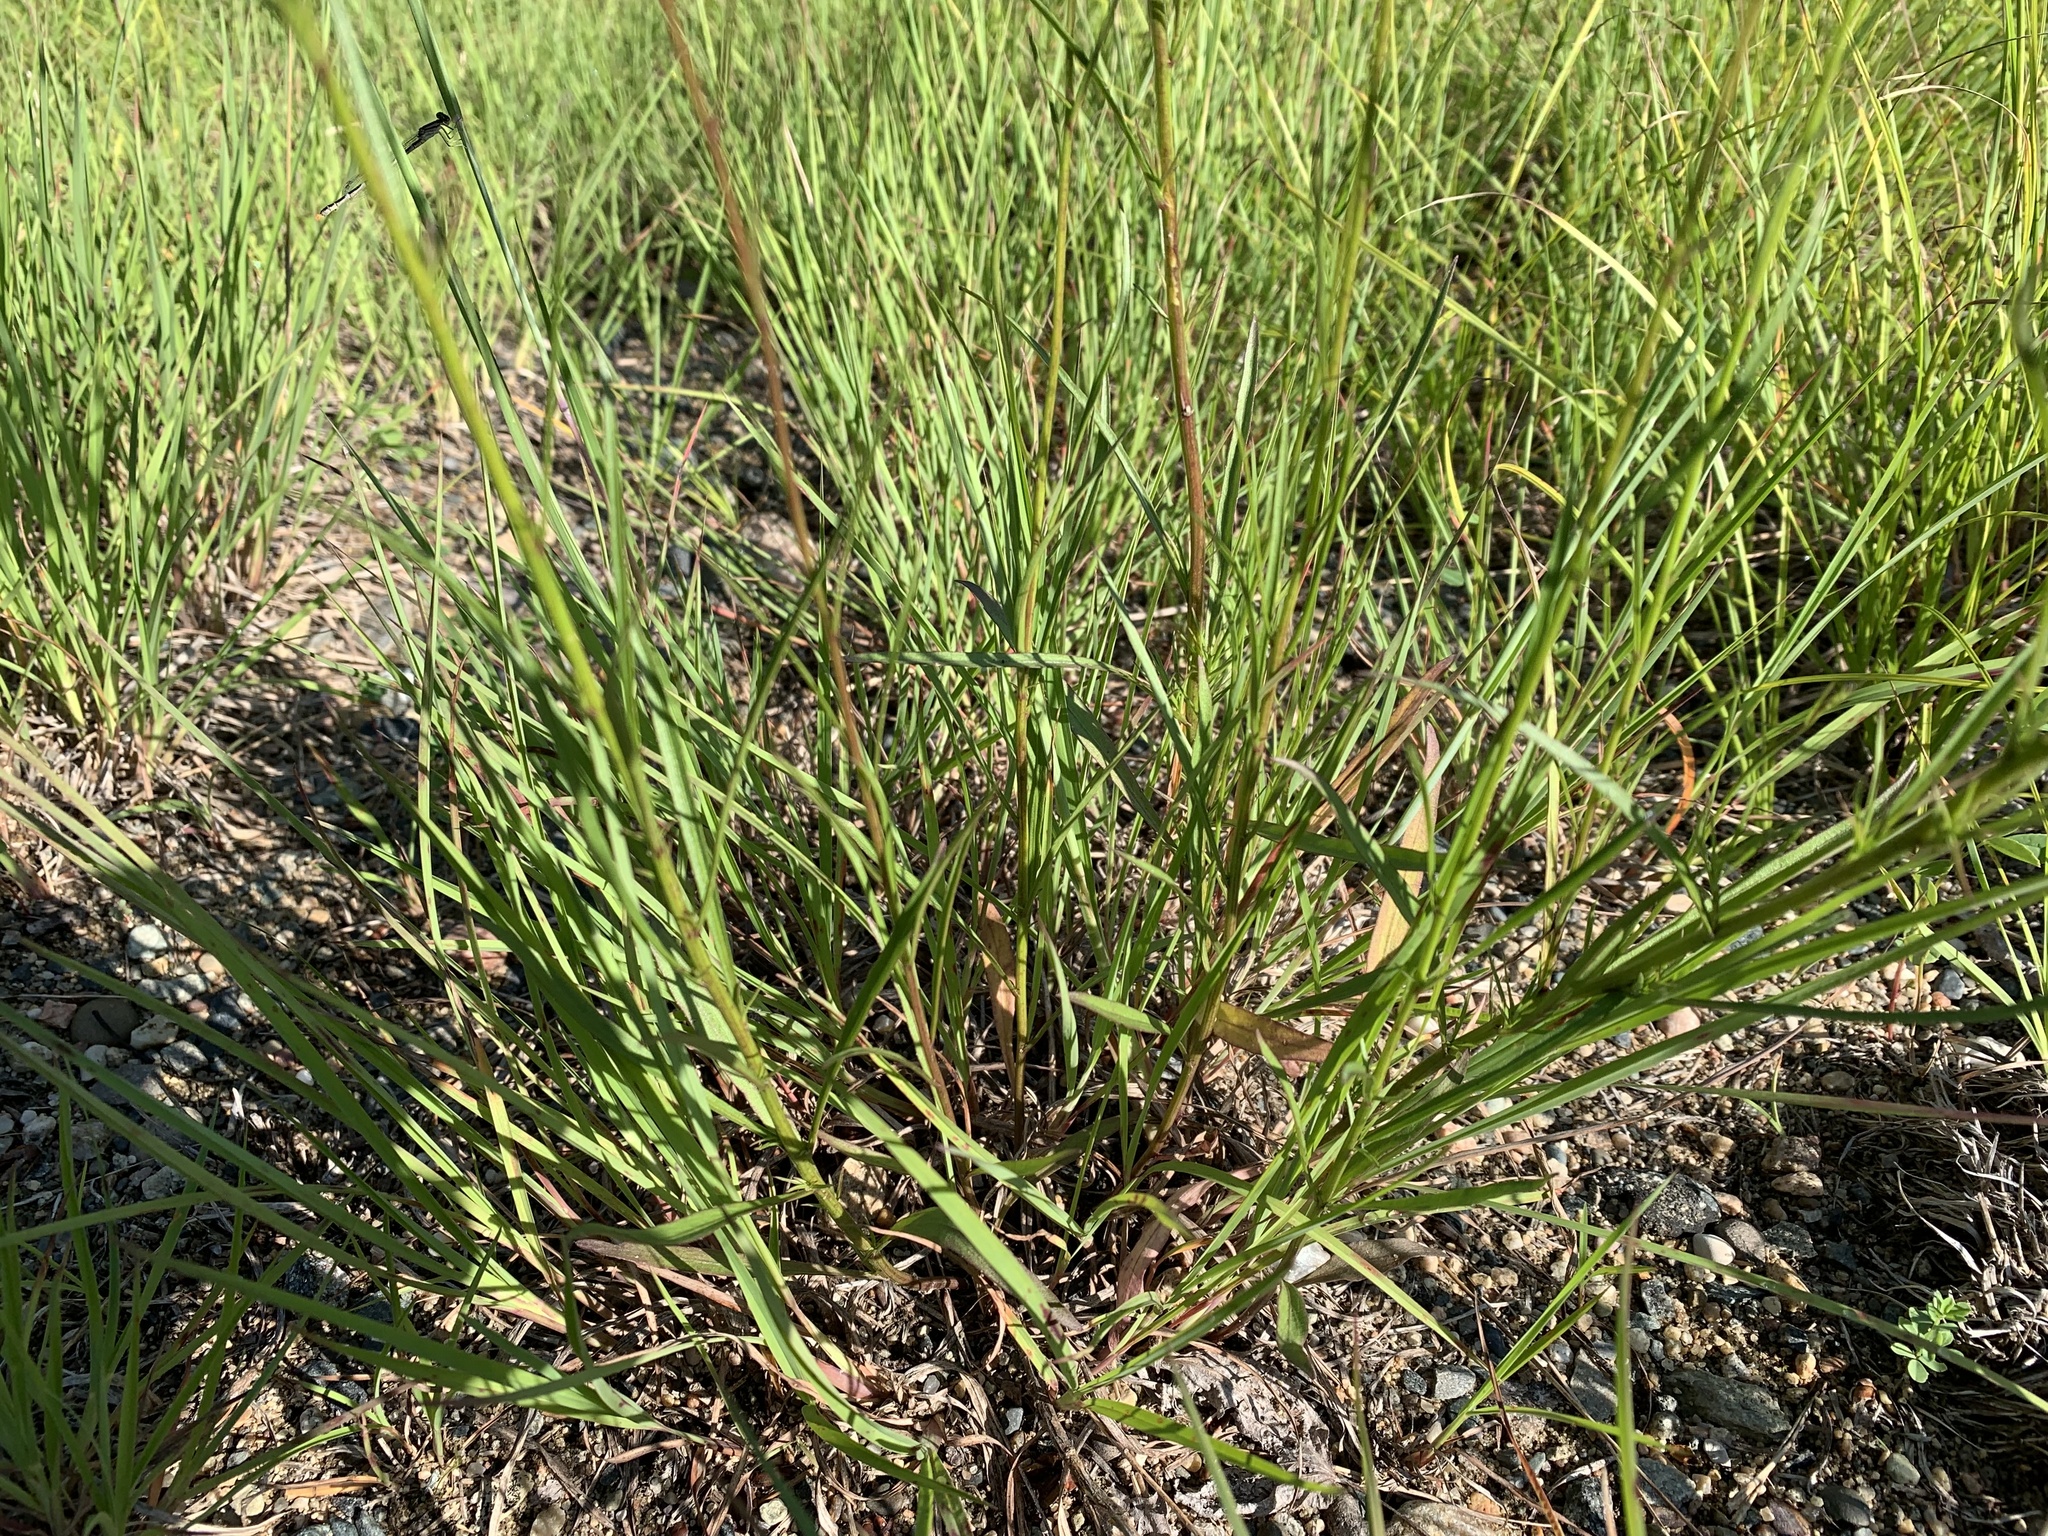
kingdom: Plantae
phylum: Tracheophyta
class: Magnoliopsida
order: Asterales
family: Campanulaceae
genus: Campanula
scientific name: Campanula intercedens
